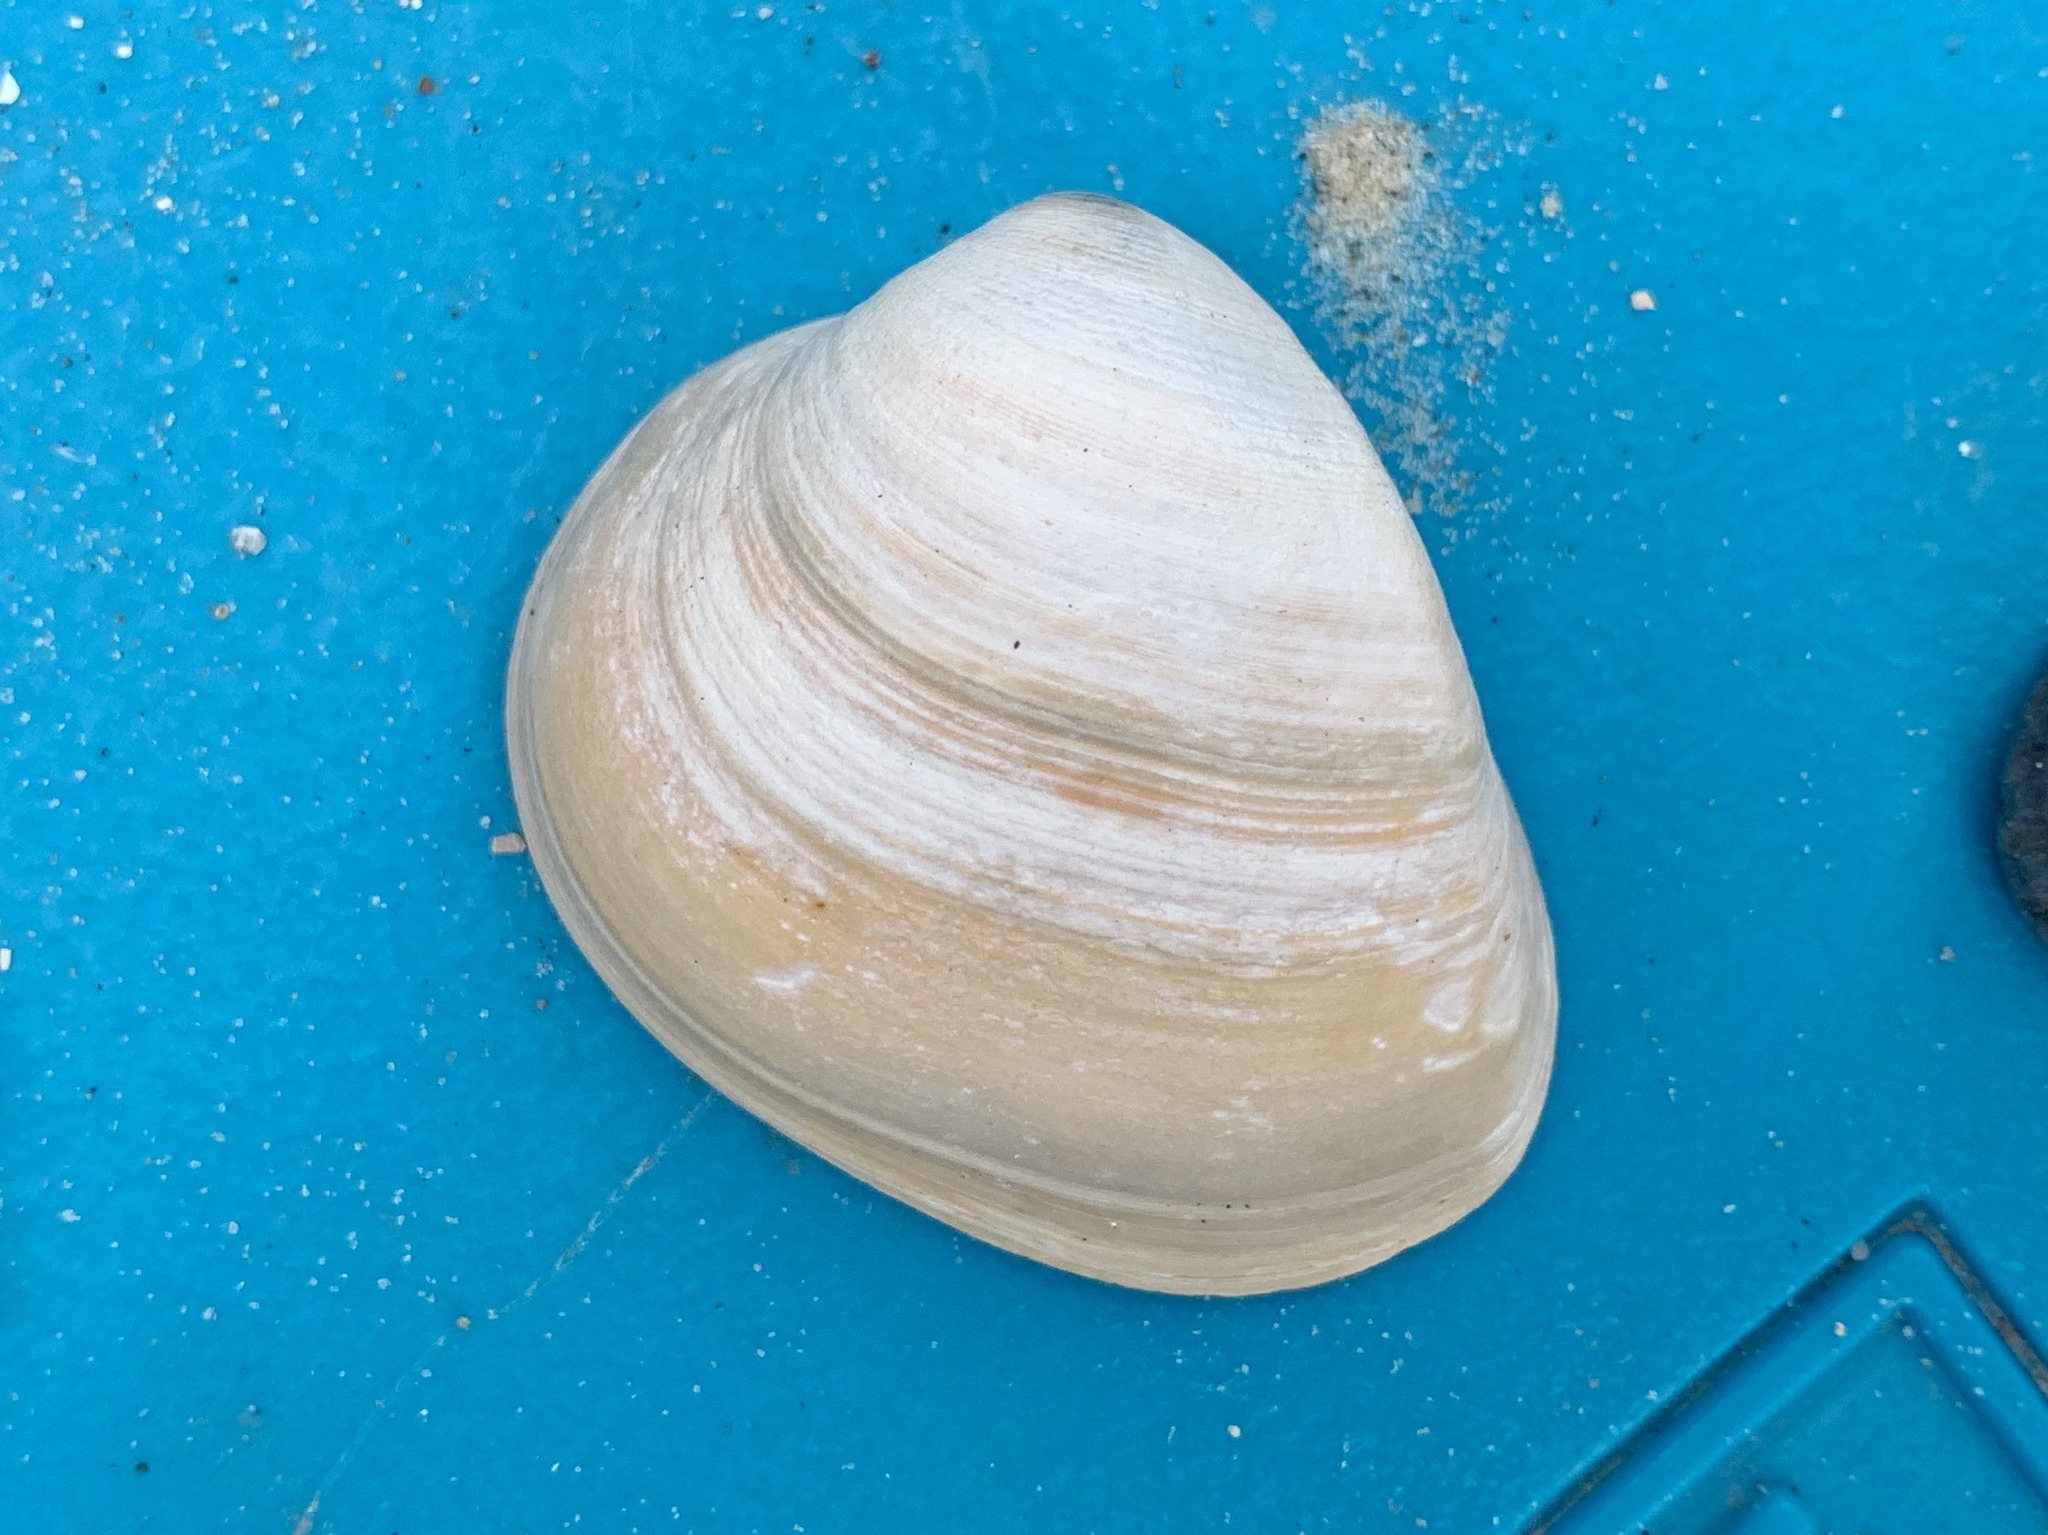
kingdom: Animalia
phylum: Mollusca
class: Bivalvia
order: Venerida
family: Mactridae
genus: Rangia
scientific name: Rangia cuneata
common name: Atlantic rangia
